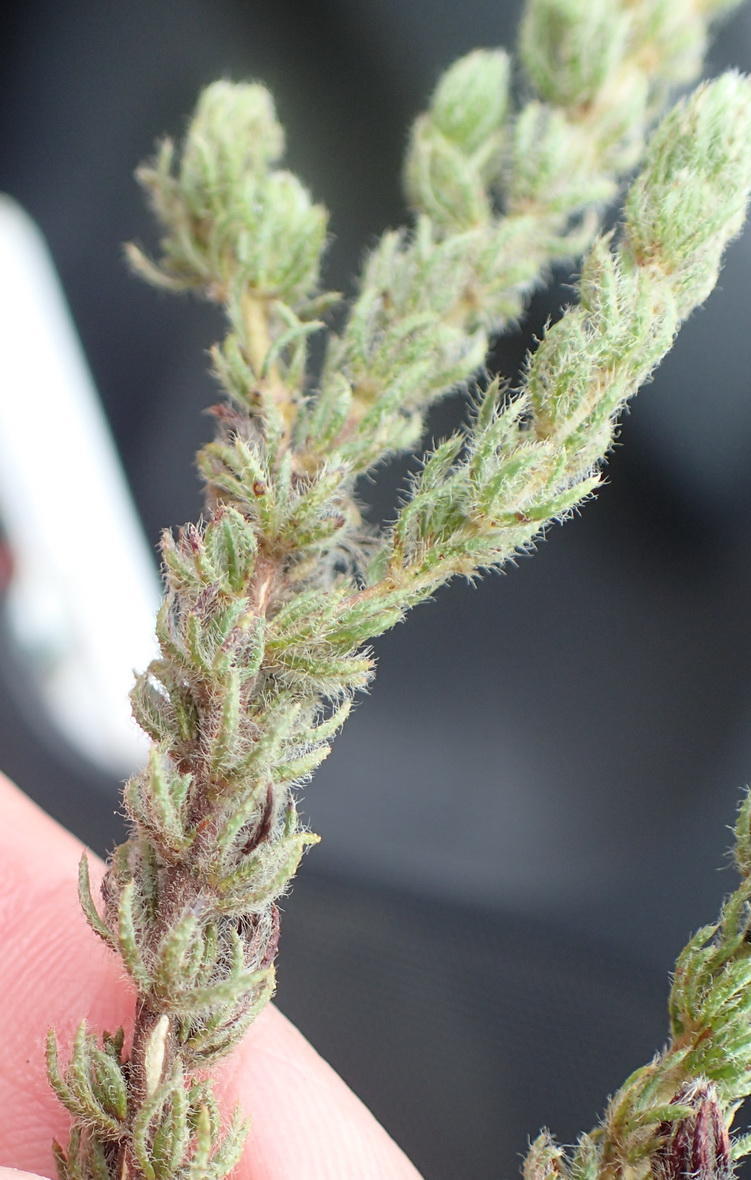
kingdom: Plantae
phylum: Tracheophyta
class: Magnoliopsida
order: Fabales
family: Fabaceae
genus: Aspalathus
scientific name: Aspalathus ciliaris
